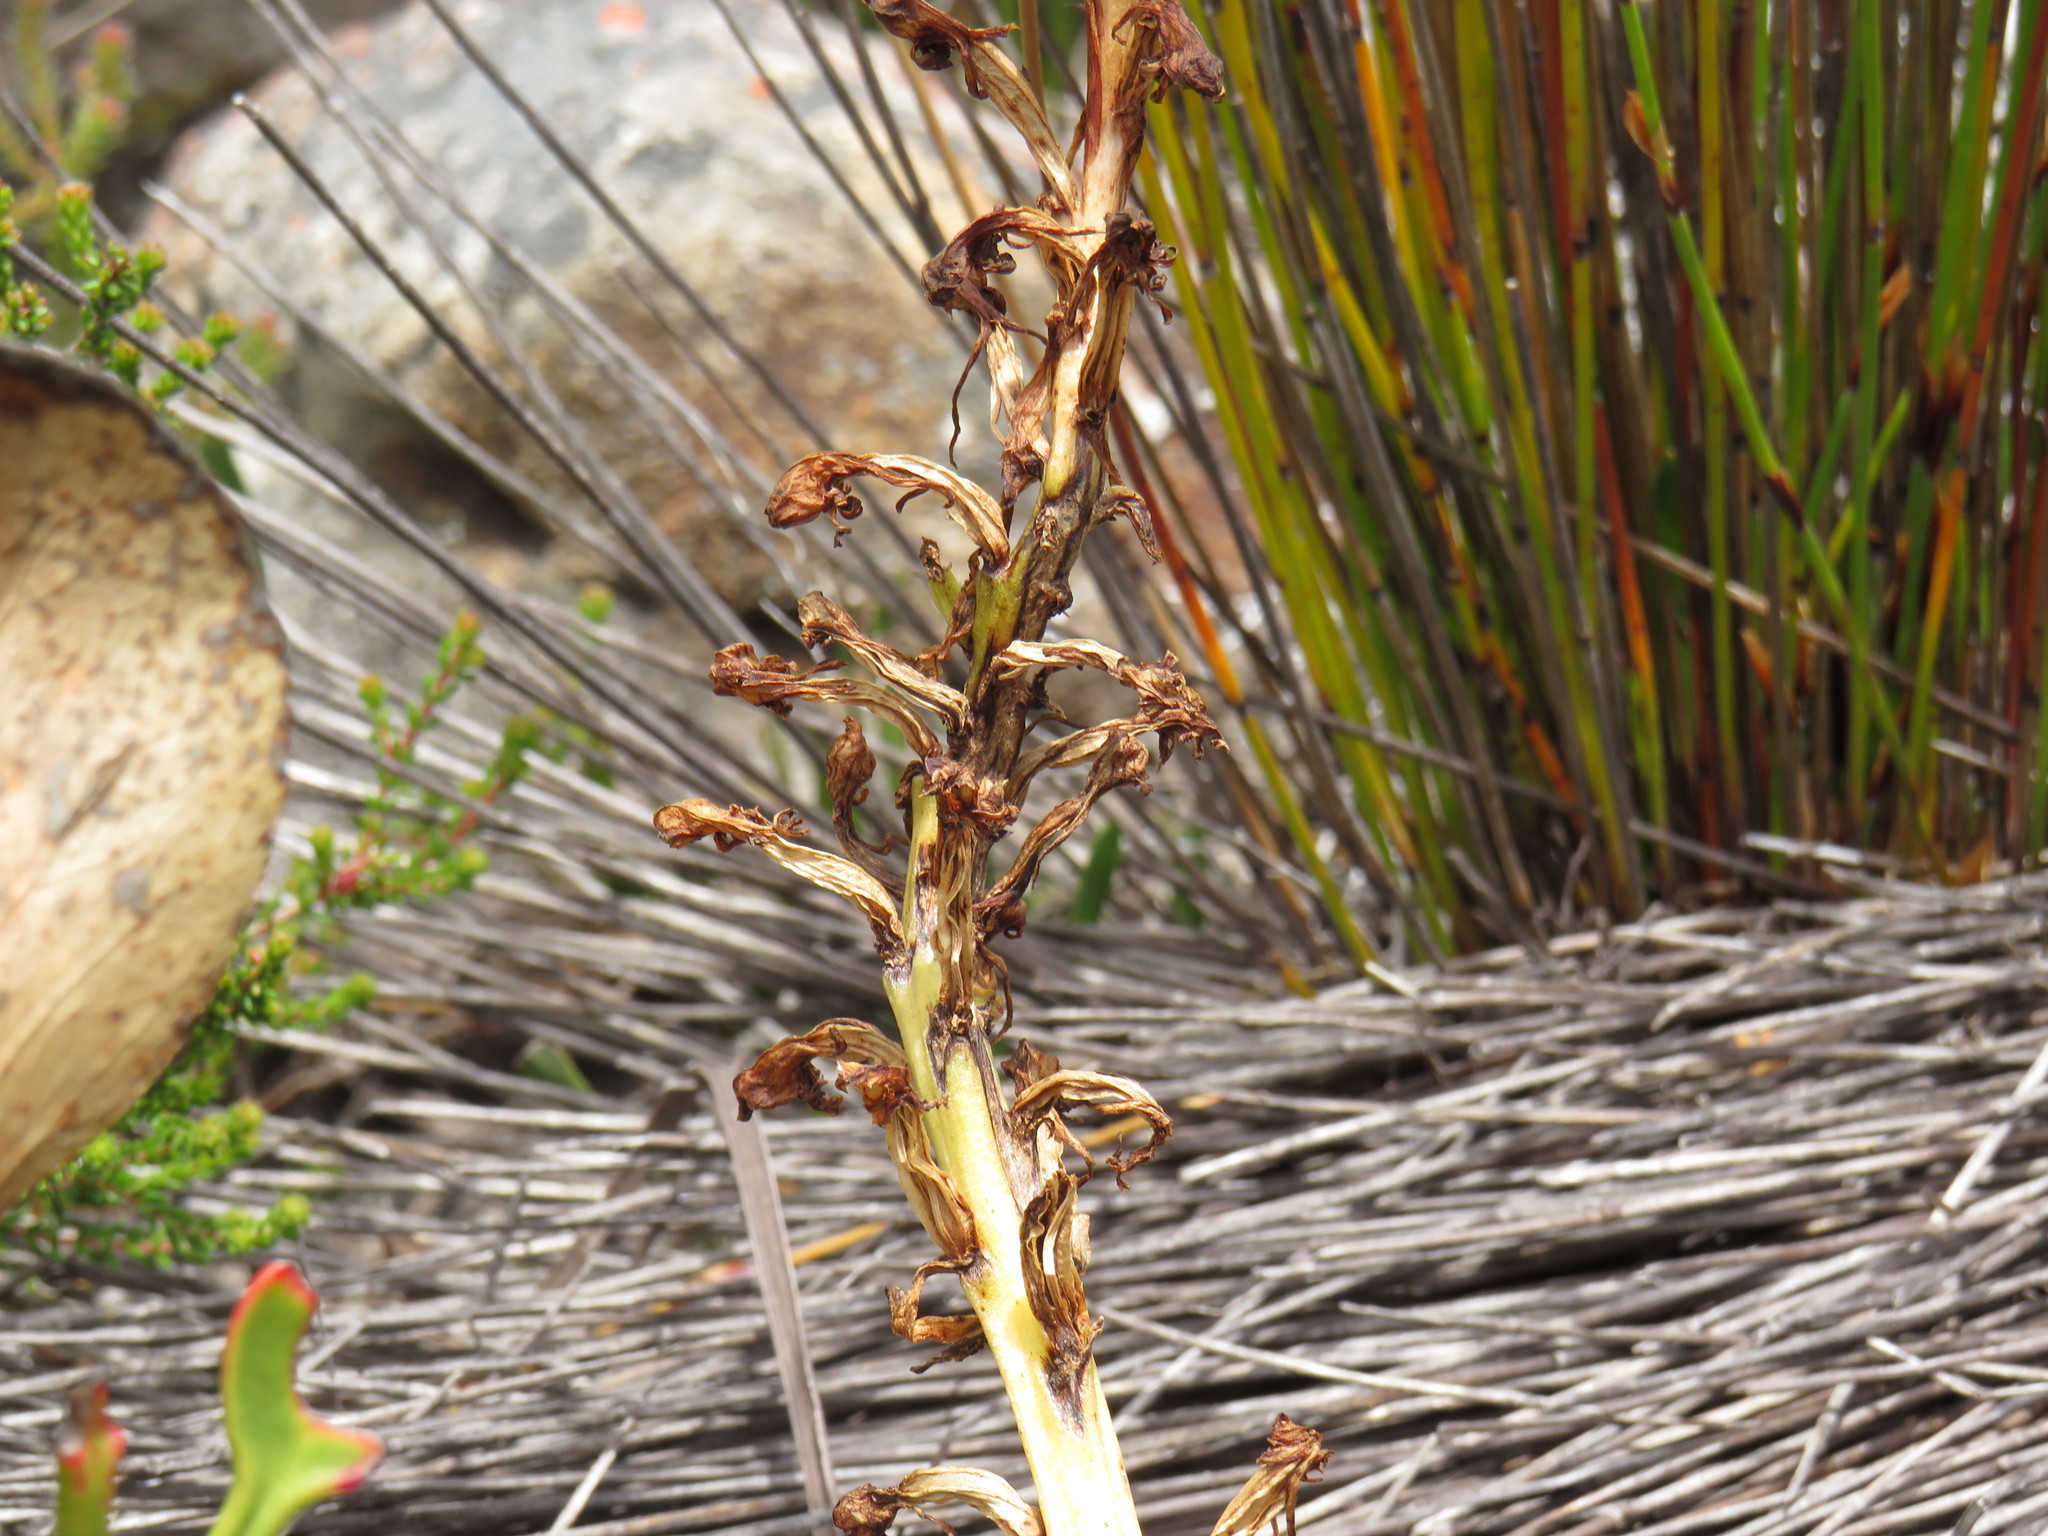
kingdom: Plantae
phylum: Tracheophyta
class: Liliopsida
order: Asparagales
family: Orchidaceae
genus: Satyrium
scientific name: Satyrium candidum
